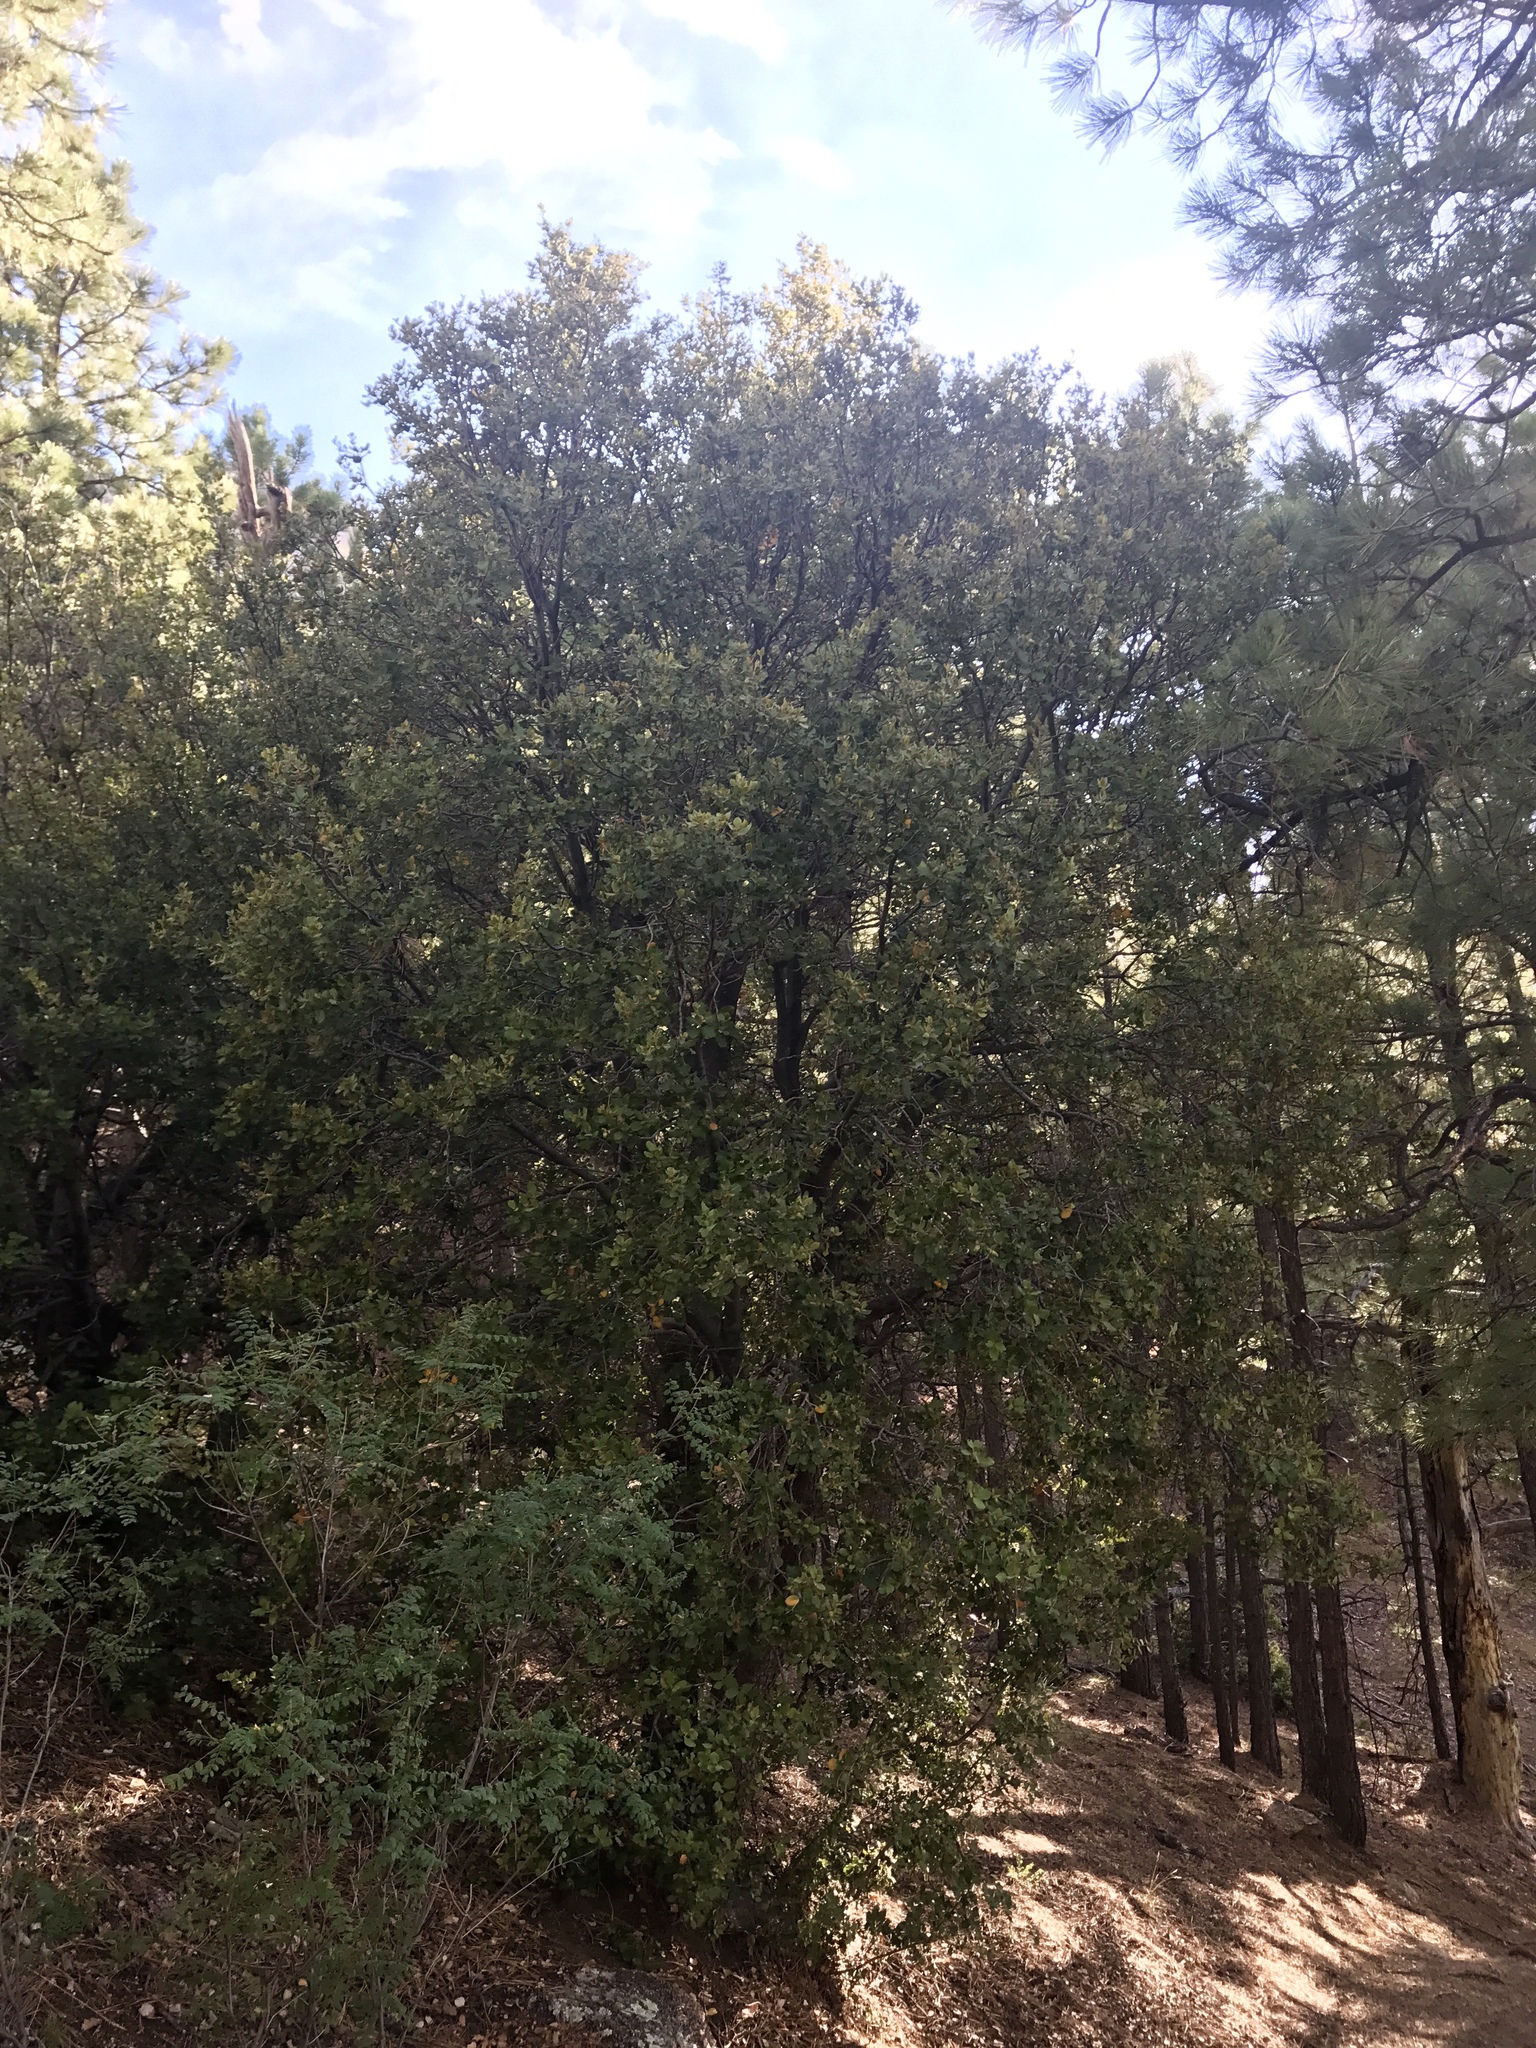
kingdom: Plantae
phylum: Tracheophyta
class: Magnoliopsida
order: Fagales
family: Fagaceae
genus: Quercus
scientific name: Quercus chrysolepis
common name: Canyon live oak
